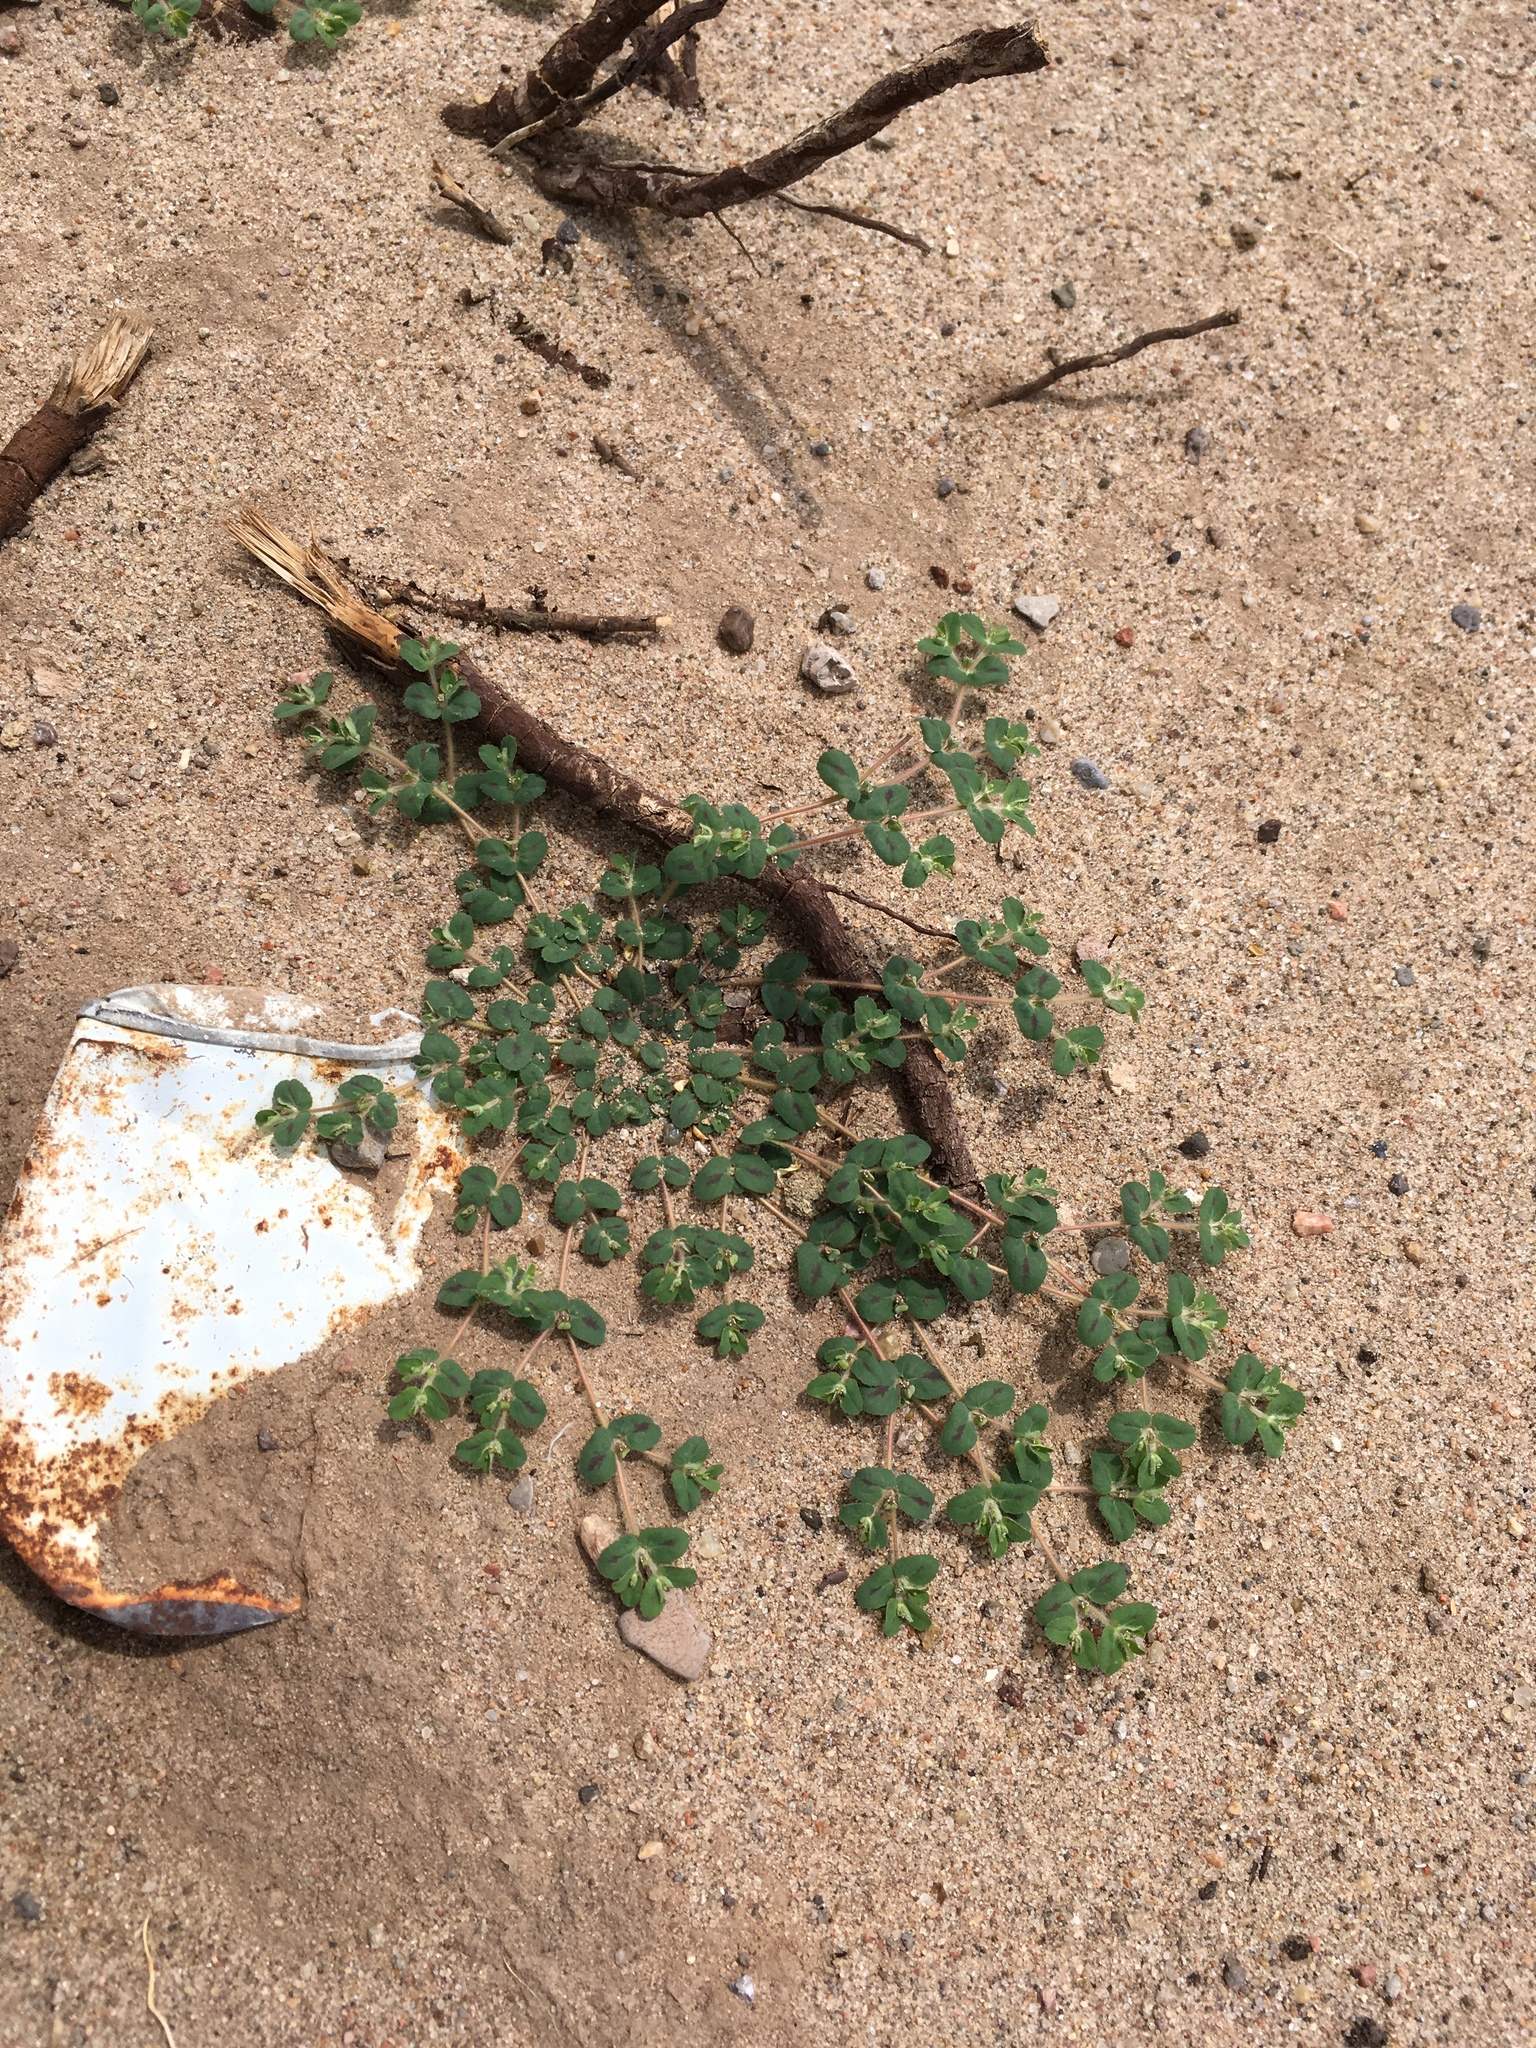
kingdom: Plantae
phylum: Tracheophyta
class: Magnoliopsida
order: Malpighiales
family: Euphorbiaceae
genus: Euphorbia
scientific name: Euphorbia serrula
